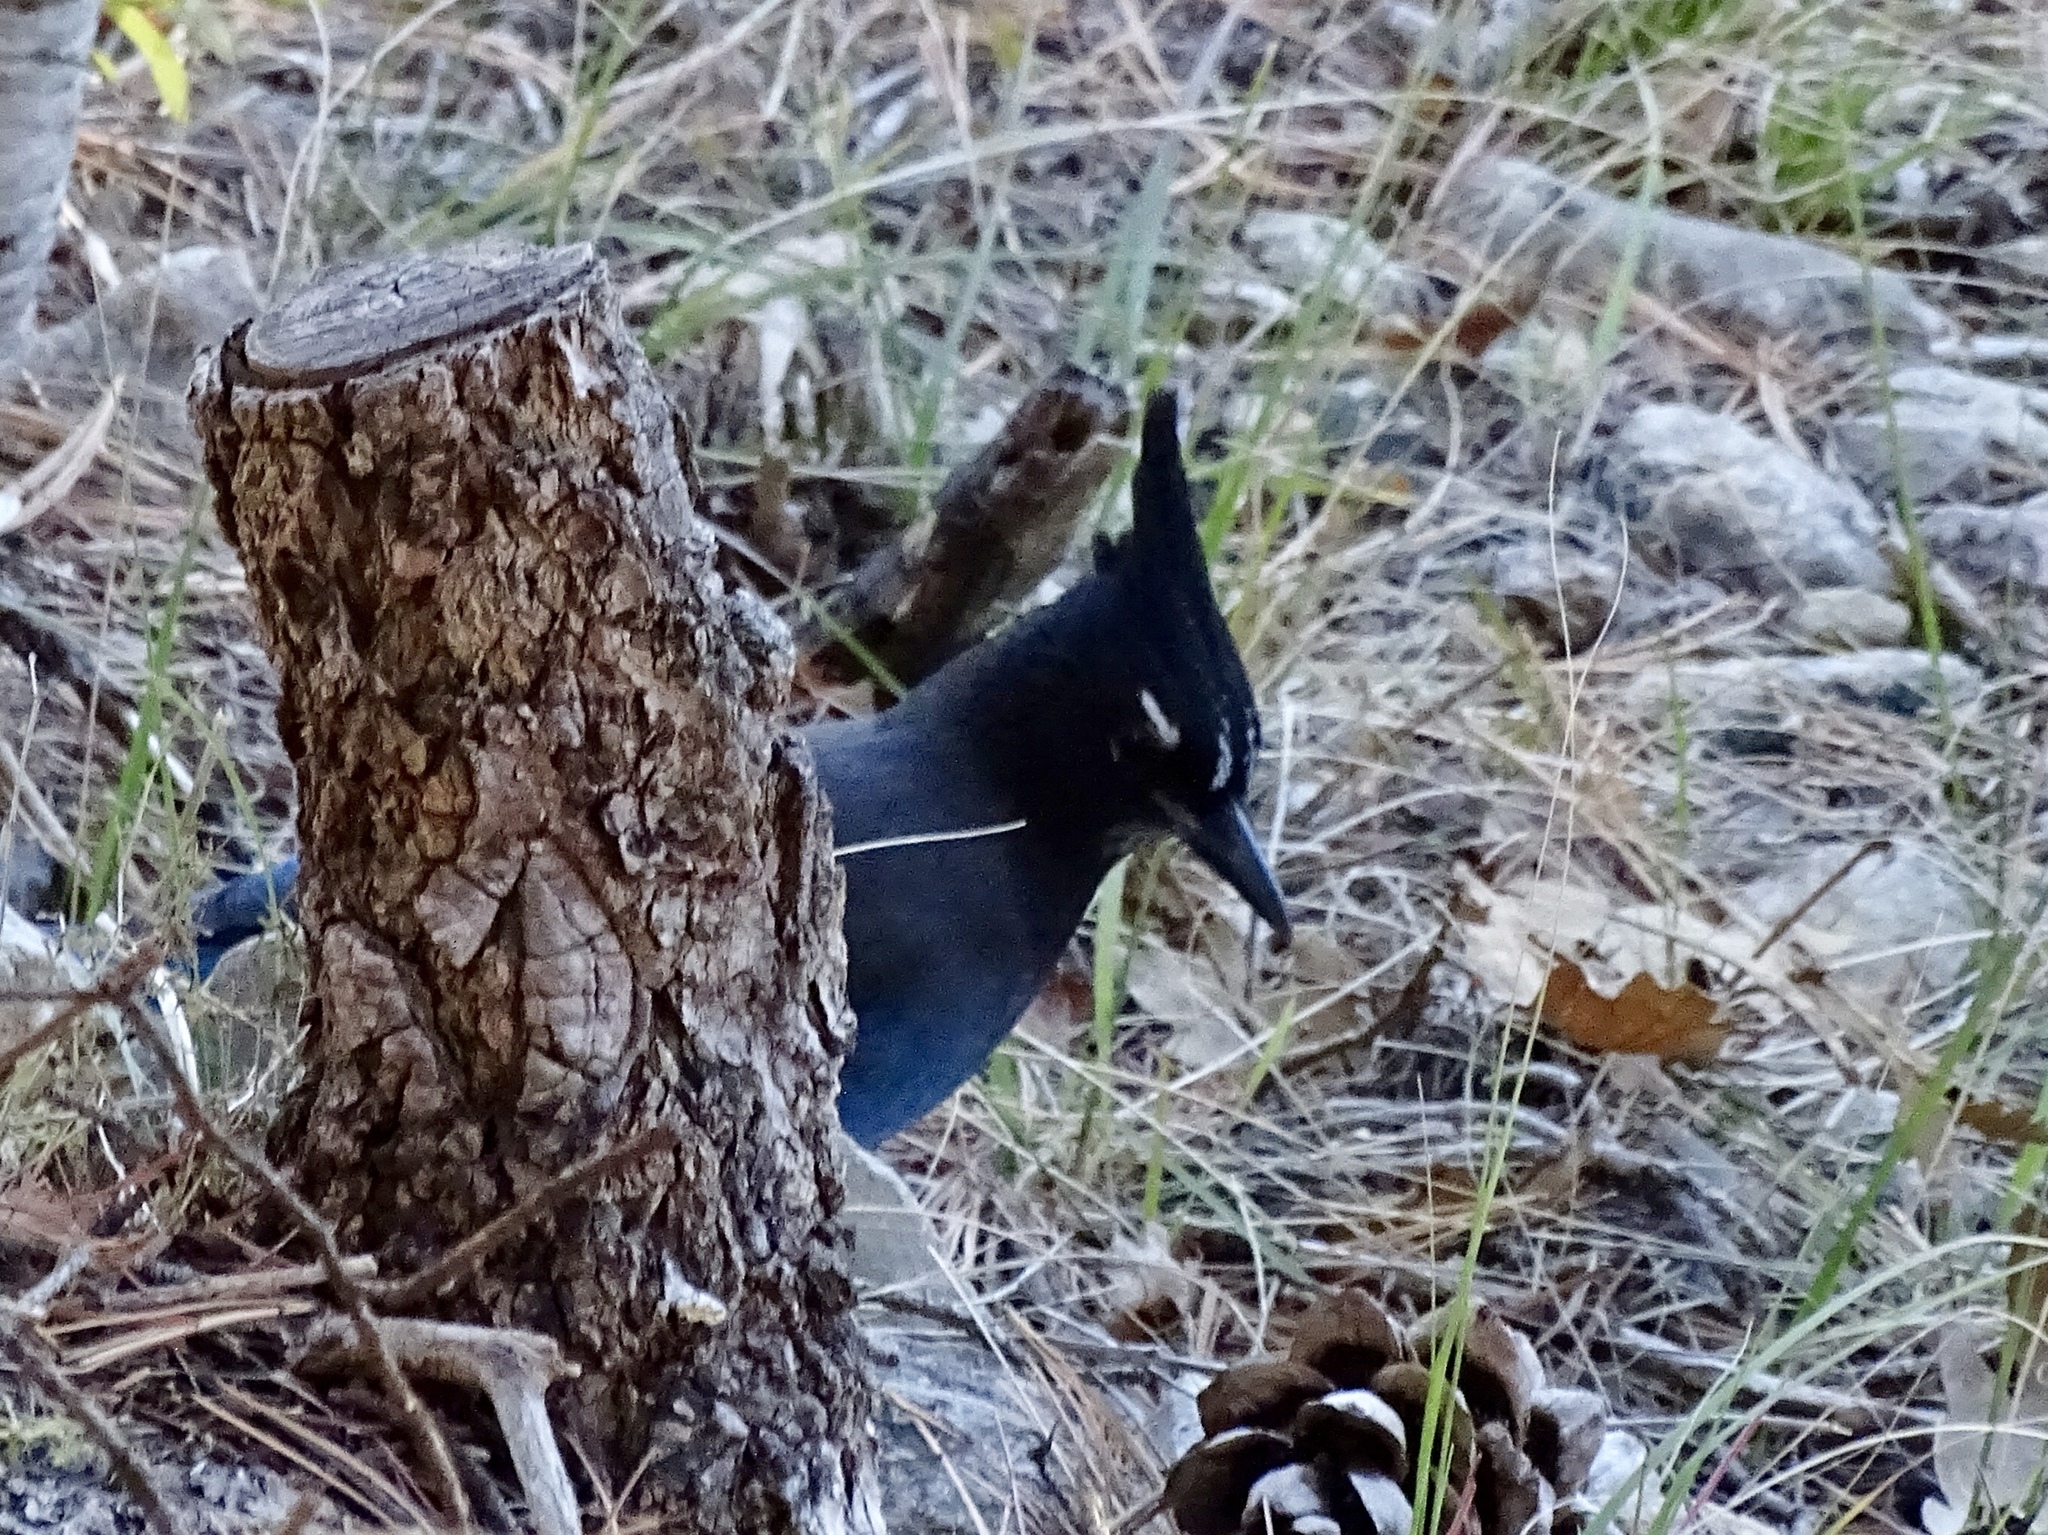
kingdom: Animalia
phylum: Chordata
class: Aves
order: Passeriformes
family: Corvidae
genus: Cyanocitta
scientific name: Cyanocitta stelleri
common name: Steller's jay
